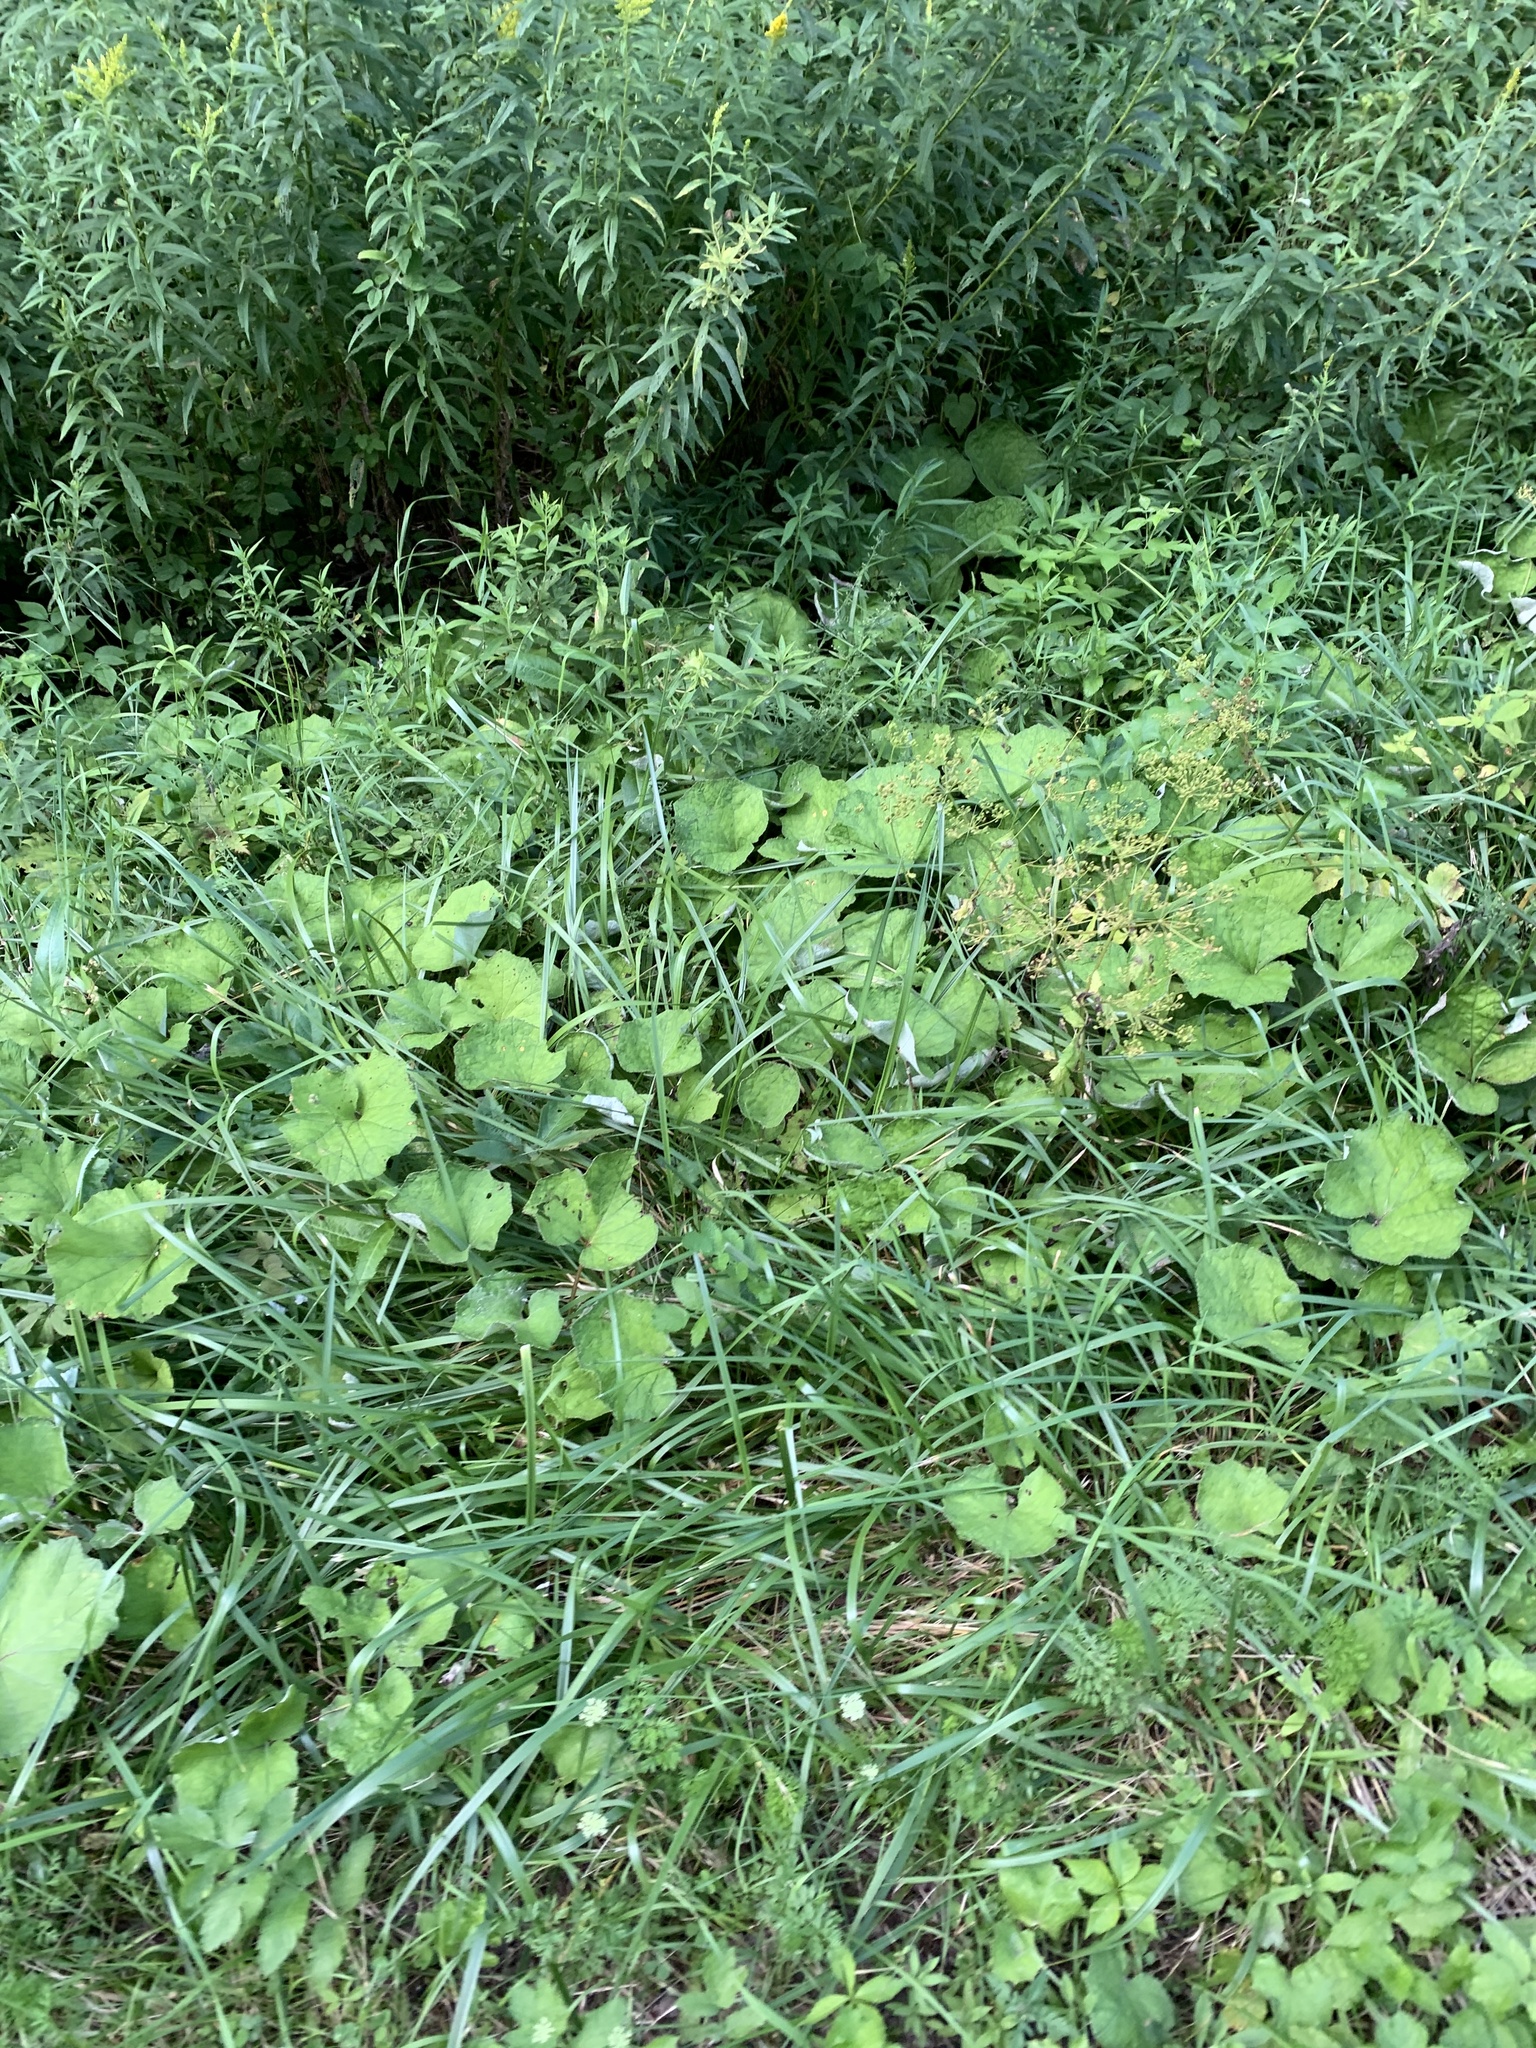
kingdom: Plantae
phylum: Tracheophyta
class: Magnoliopsida
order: Asterales
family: Asteraceae
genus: Tussilago
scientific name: Tussilago farfara
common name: Coltsfoot
